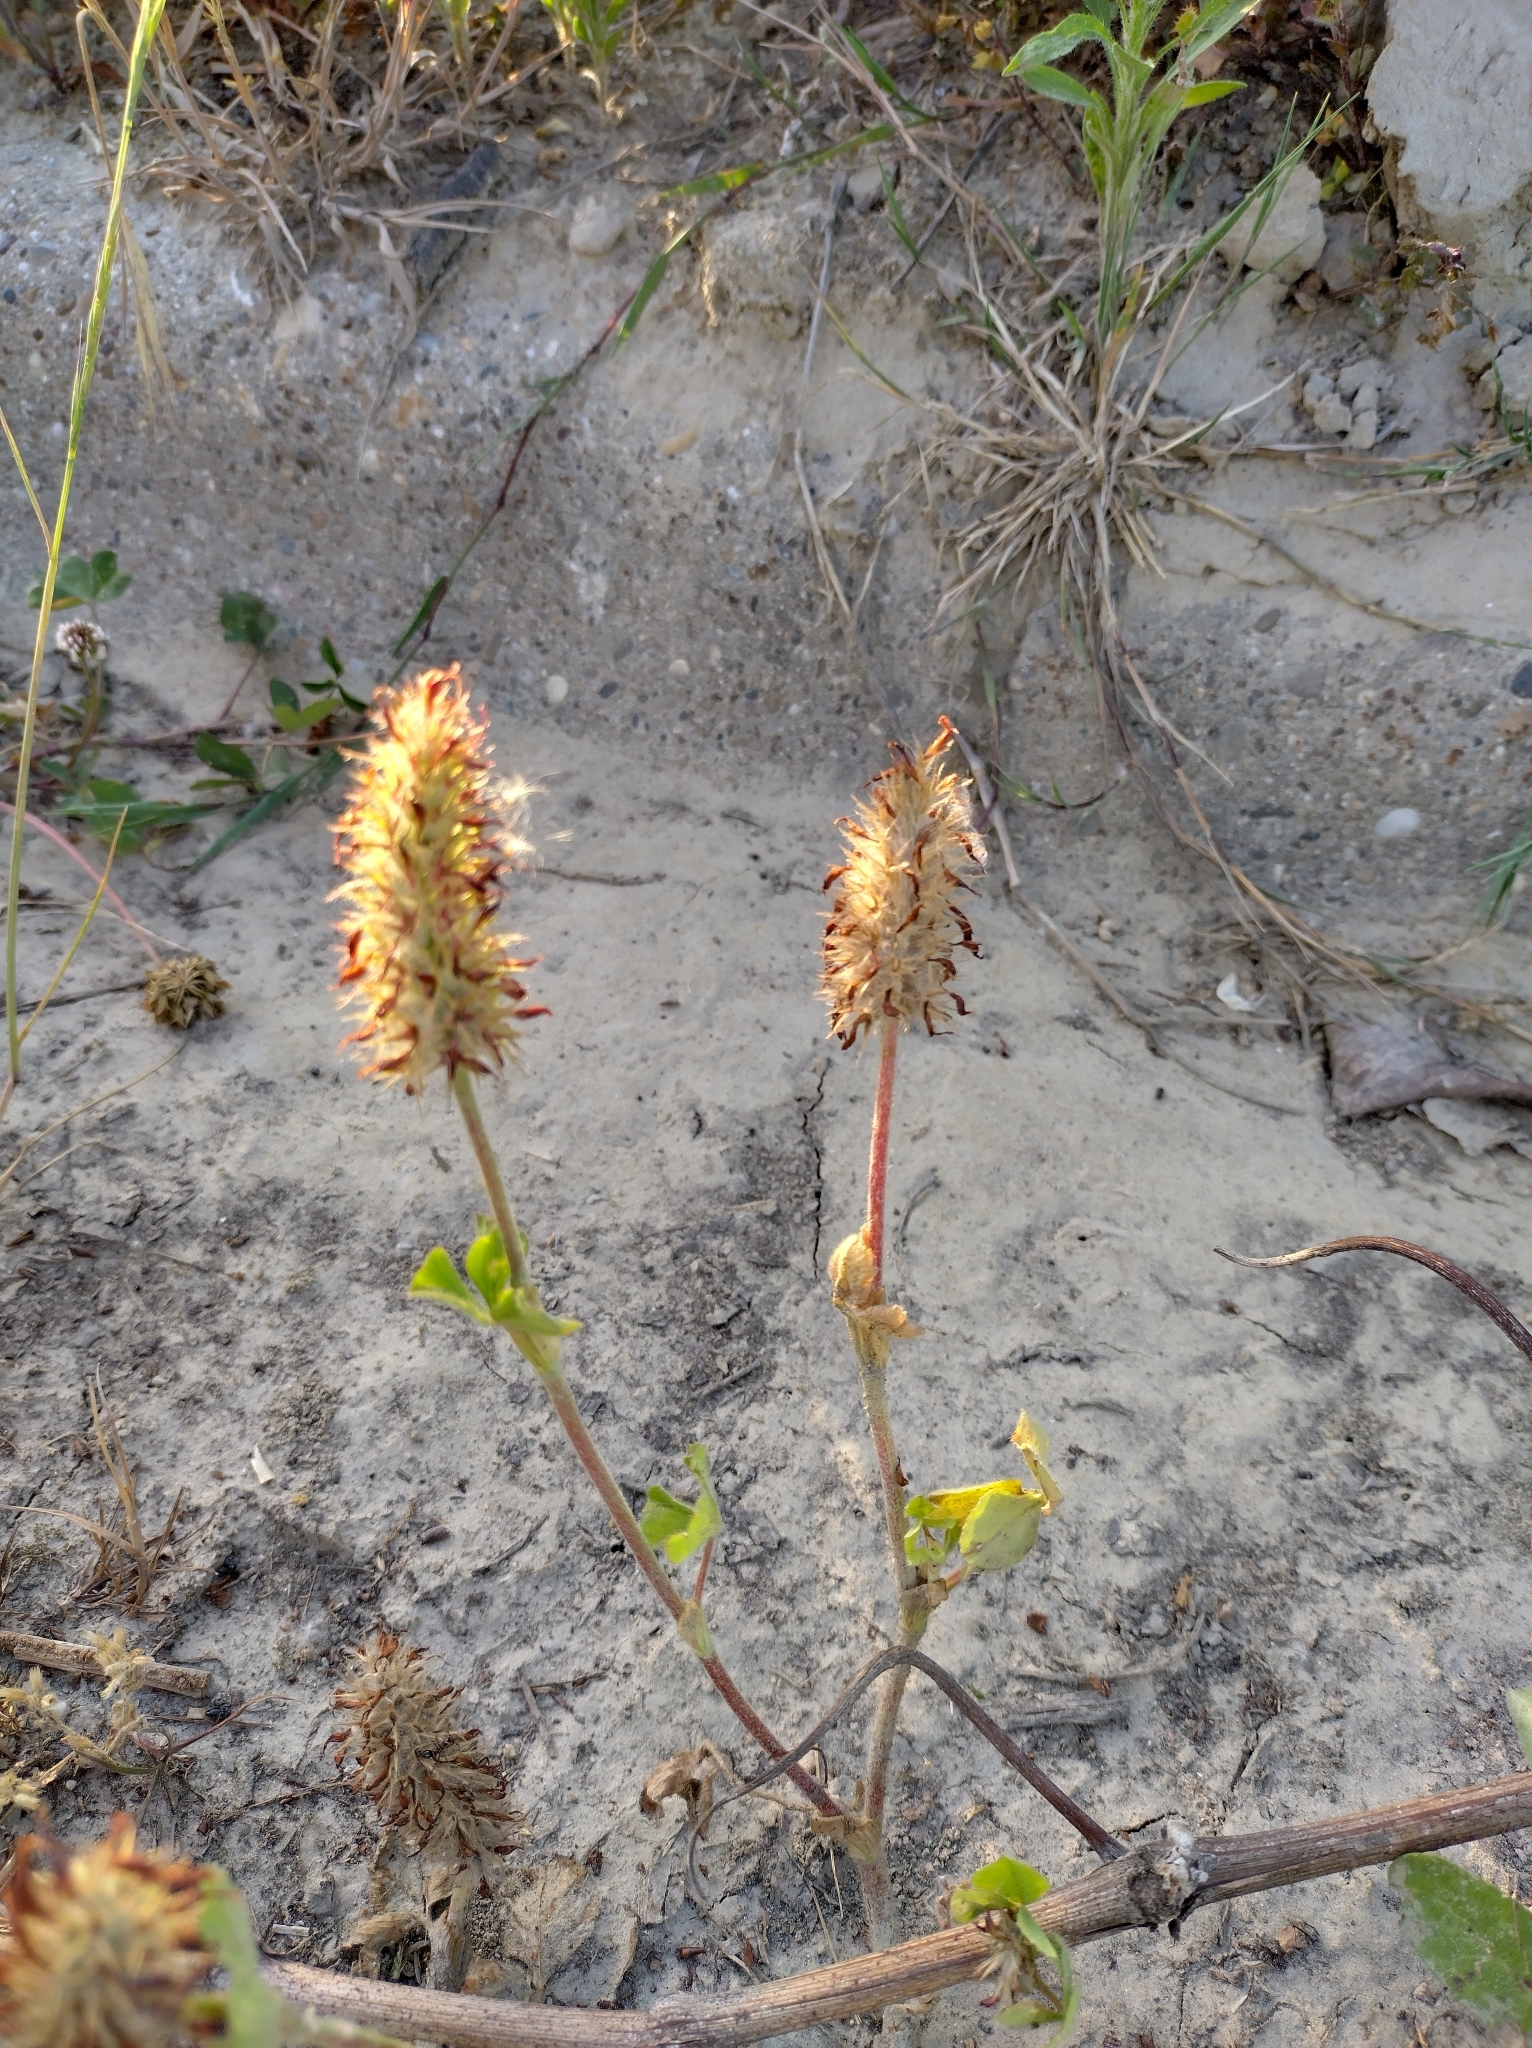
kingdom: Plantae
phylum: Tracheophyta
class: Magnoliopsida
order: Fabales
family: Fabaceae
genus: Trifolium
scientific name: Trifolium incarnatum
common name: Crimson clover
